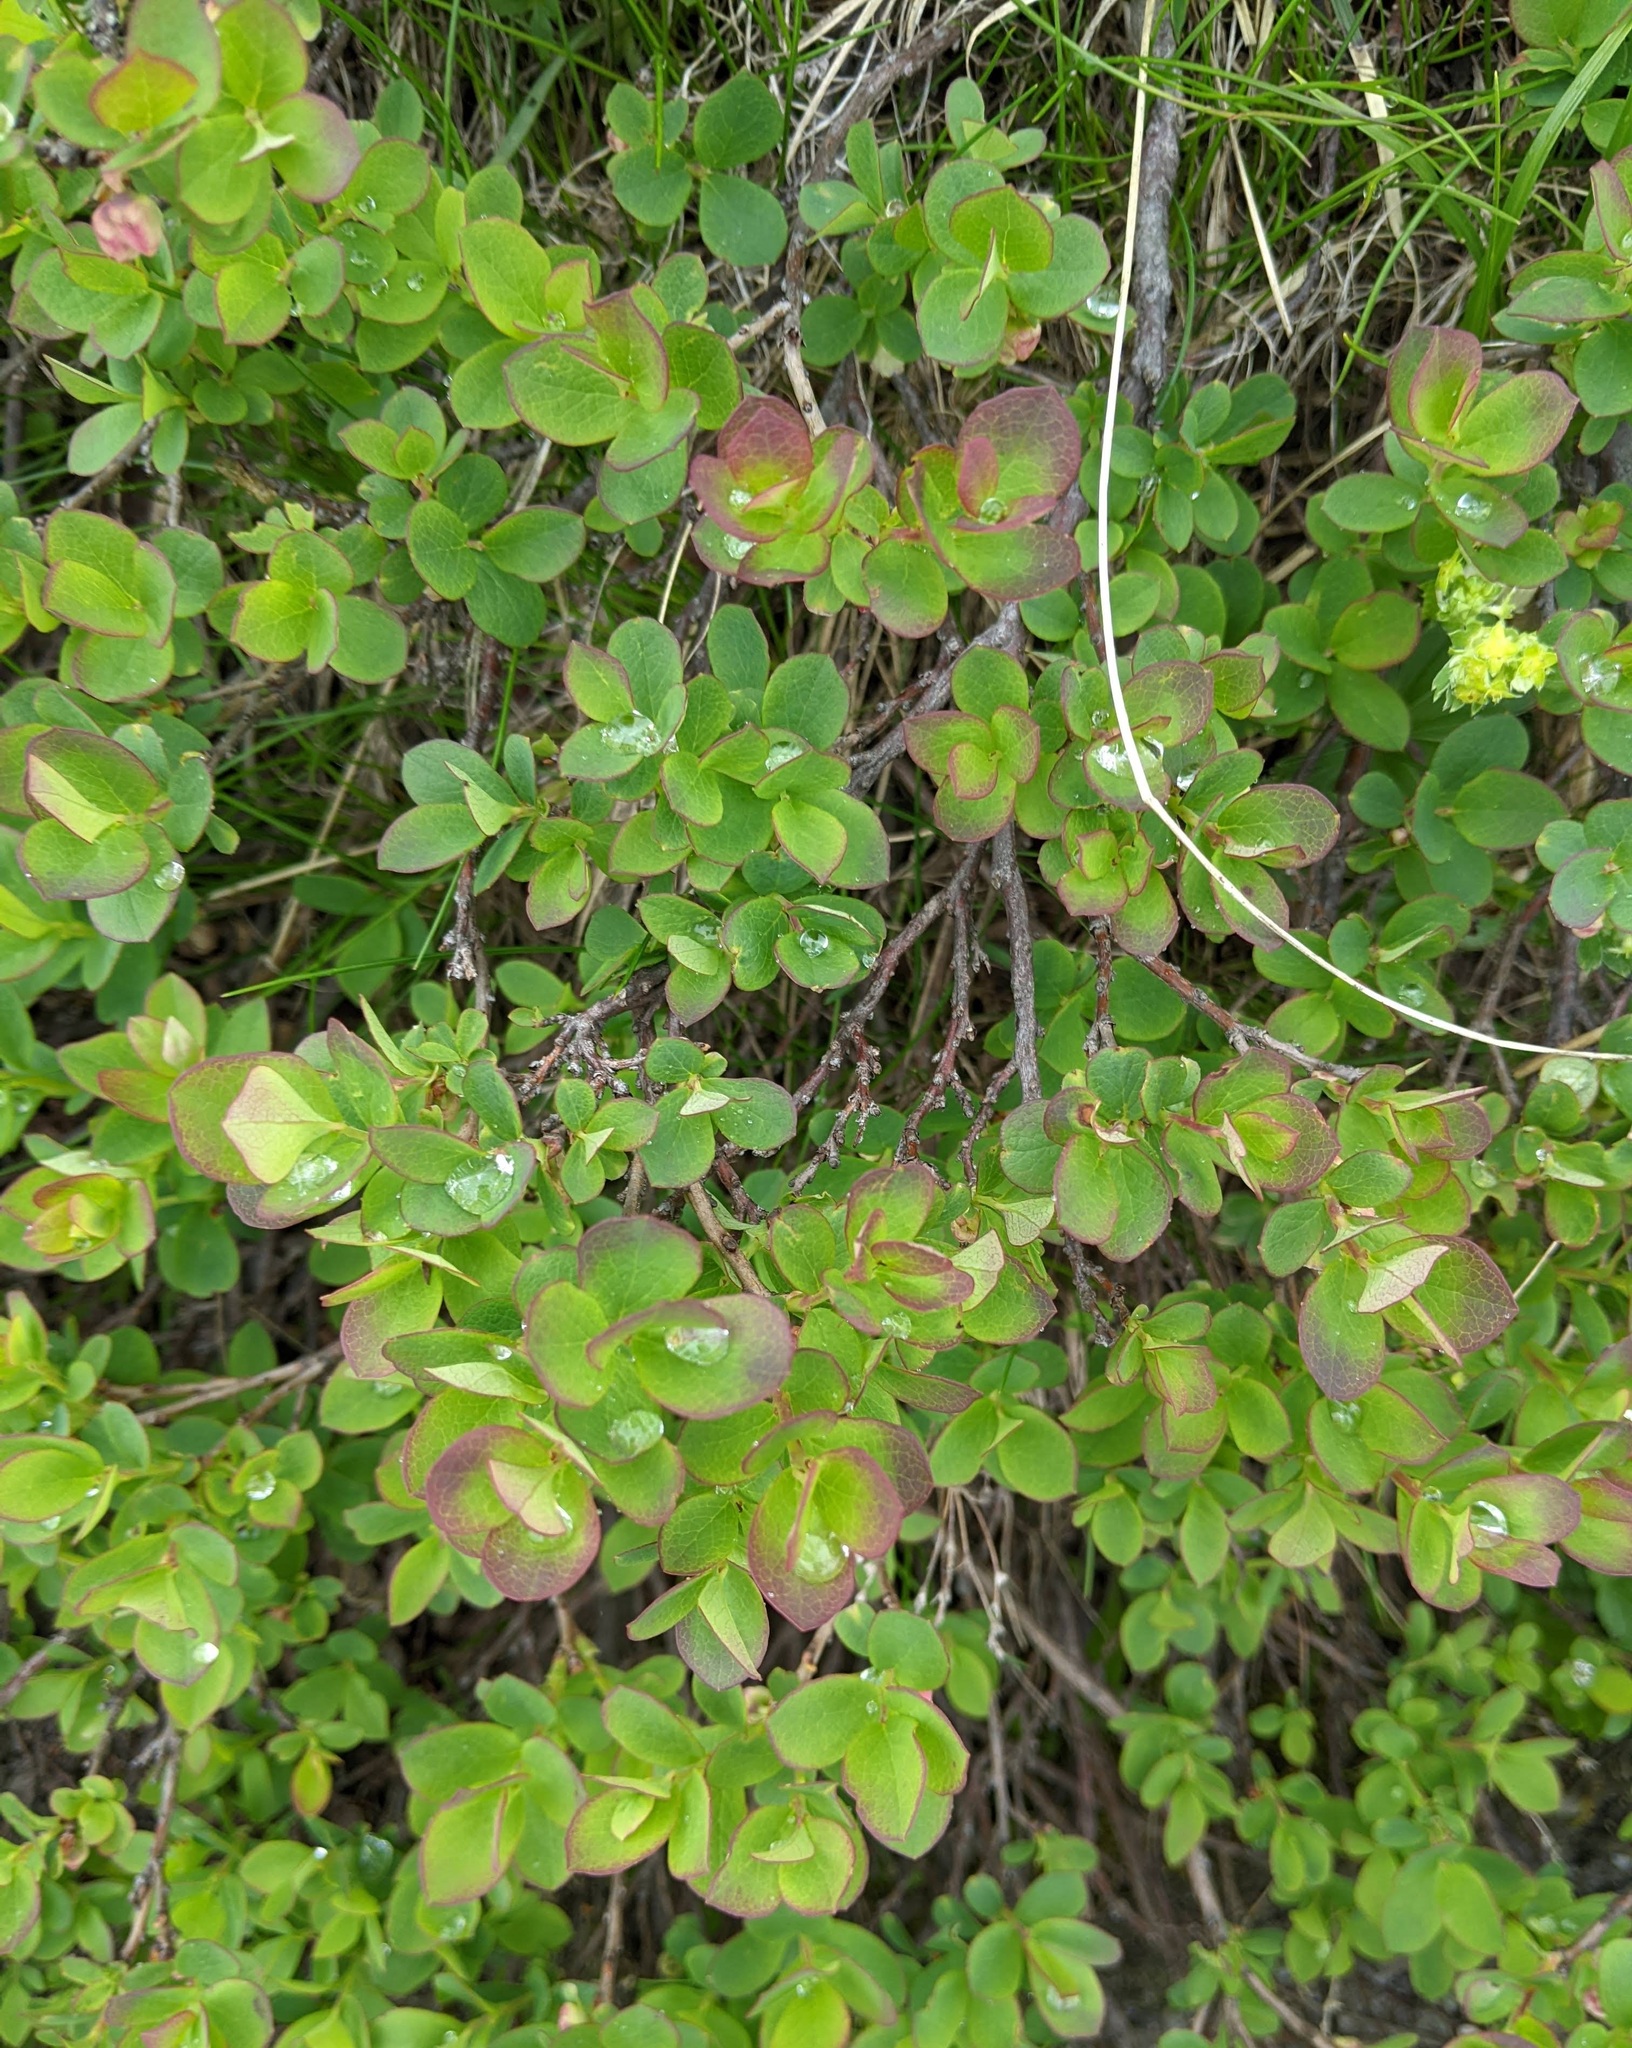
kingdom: Plantae
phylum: Tracheophyta
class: Magnoliopsida
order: Ericales
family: Ericaceae
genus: Vaccinium
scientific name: Vaccinium uliginosum
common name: Bog bilberry
